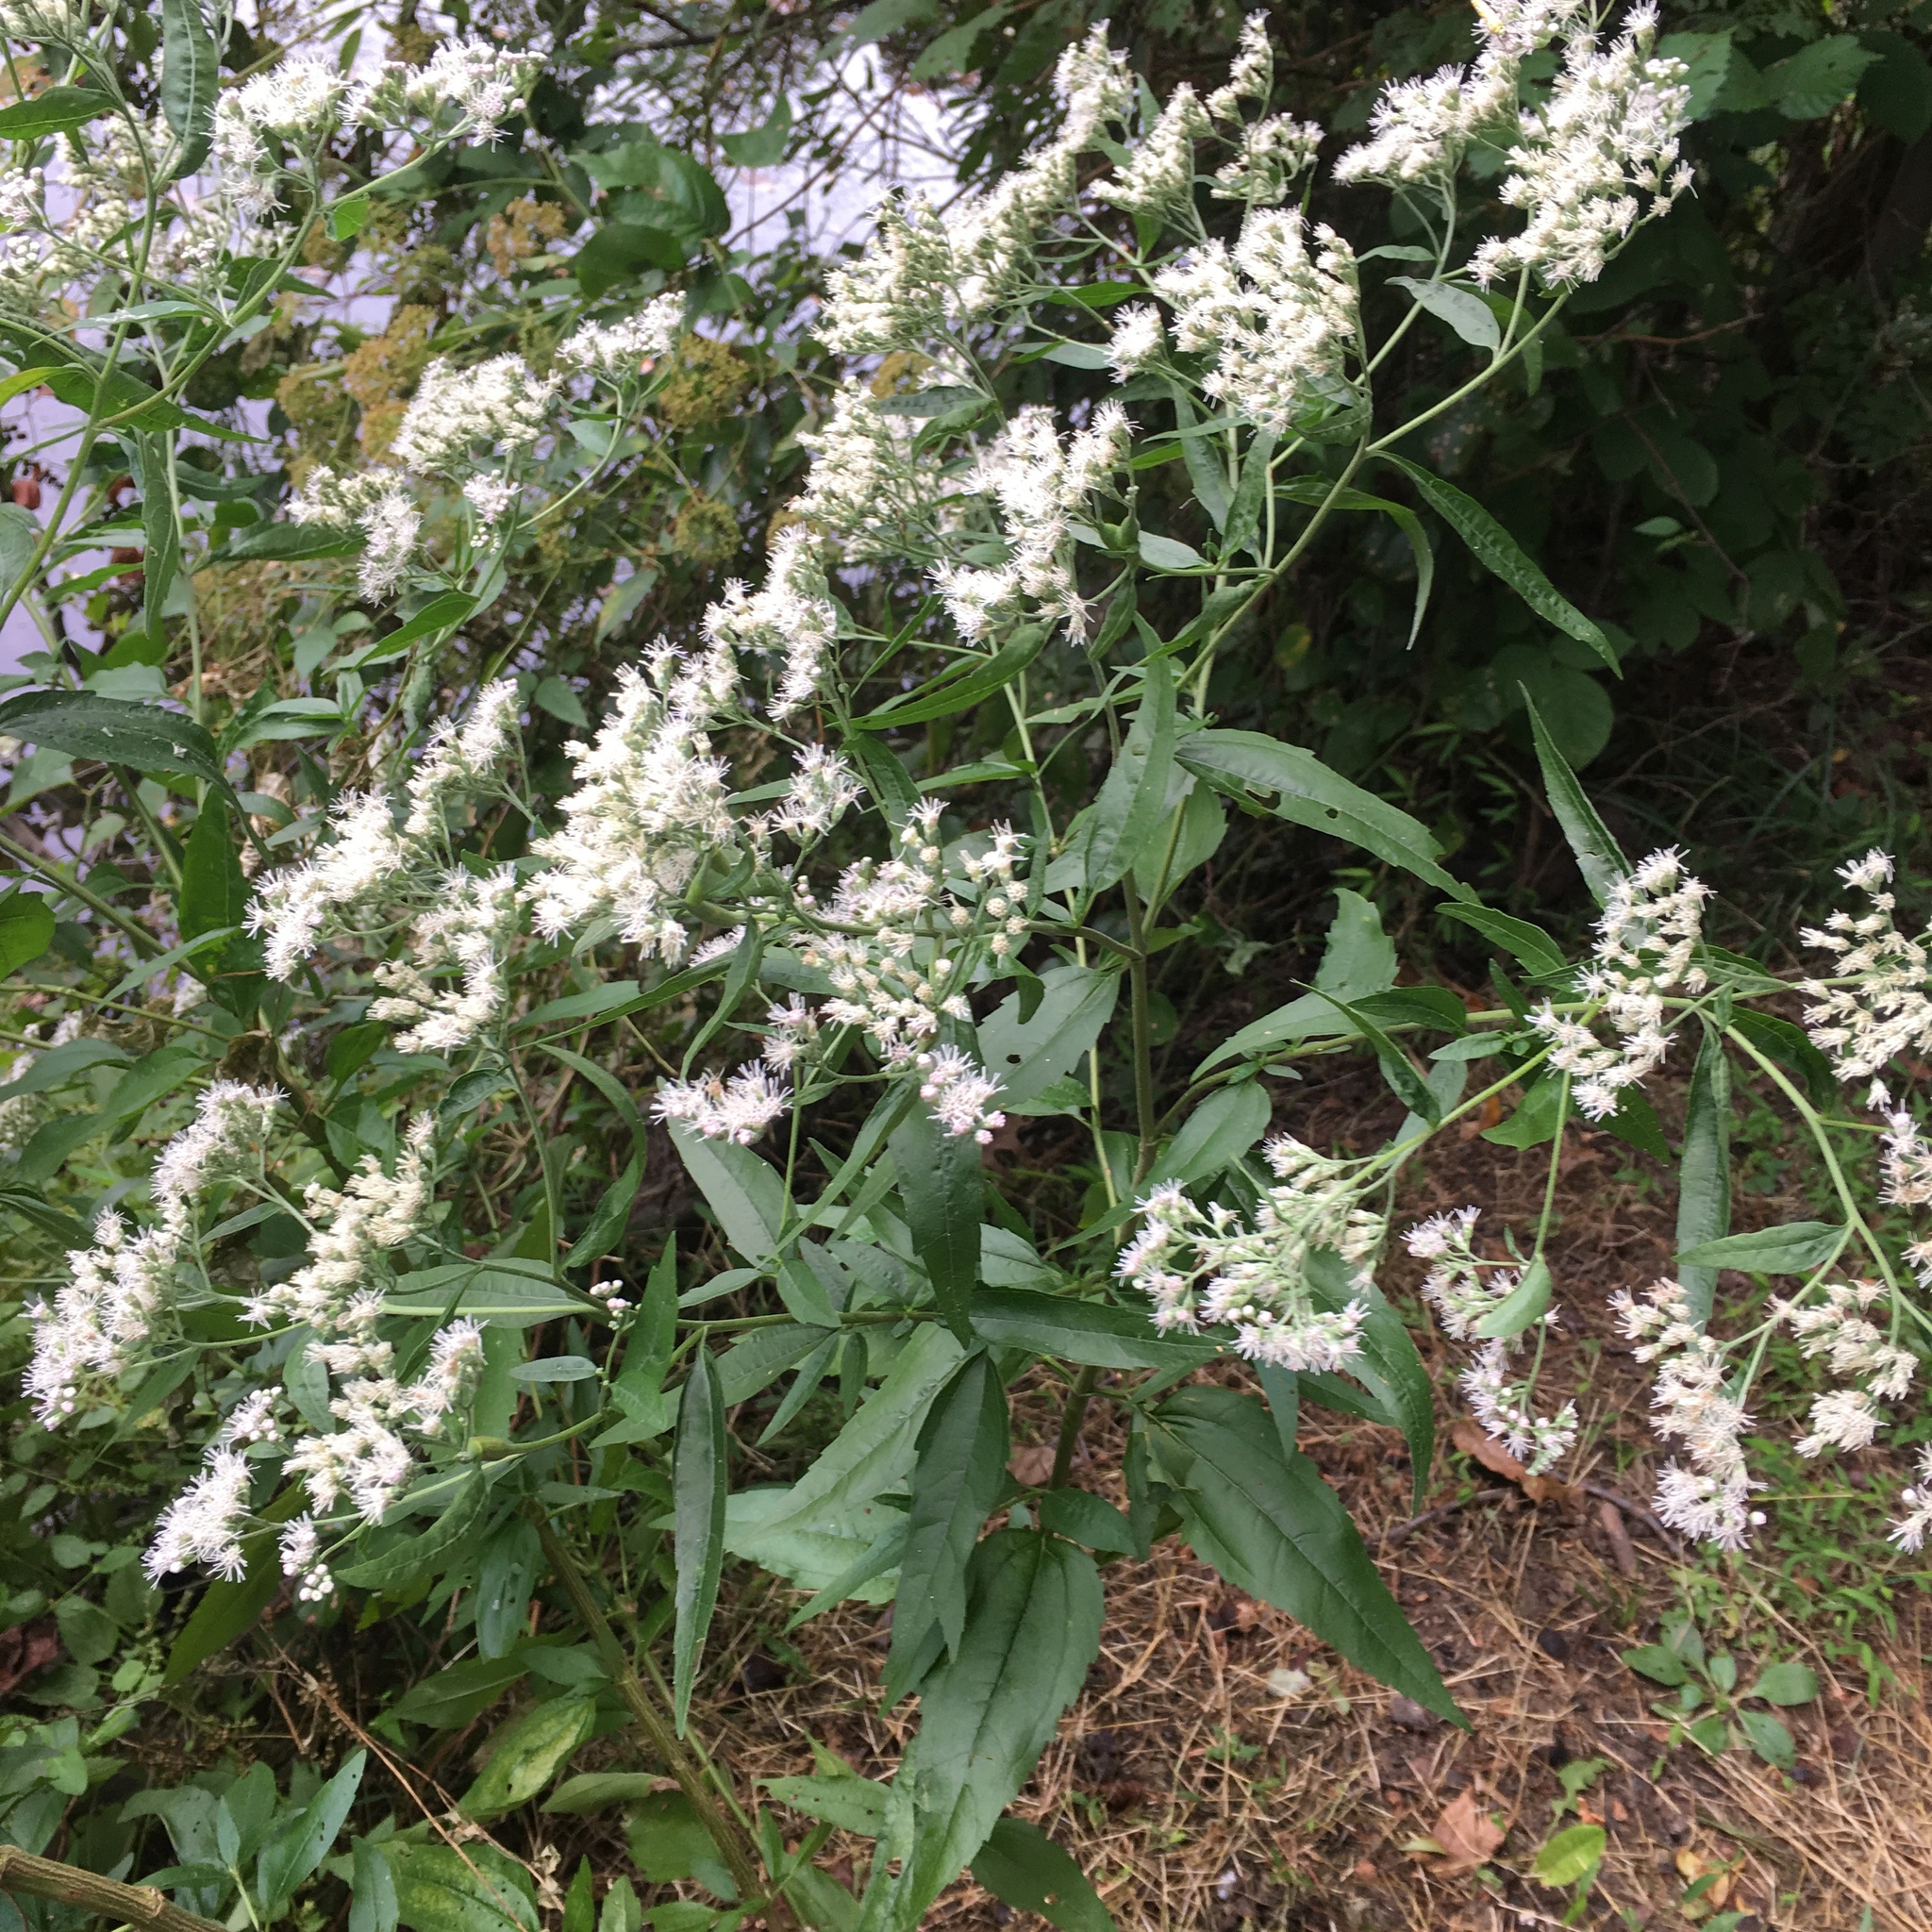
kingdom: Plantae
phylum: Tracheophyta
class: Magnoliopsida
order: Asterales
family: Asteraceae
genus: Eupatorium
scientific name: Eupatorium serotinum
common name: Late boneset
